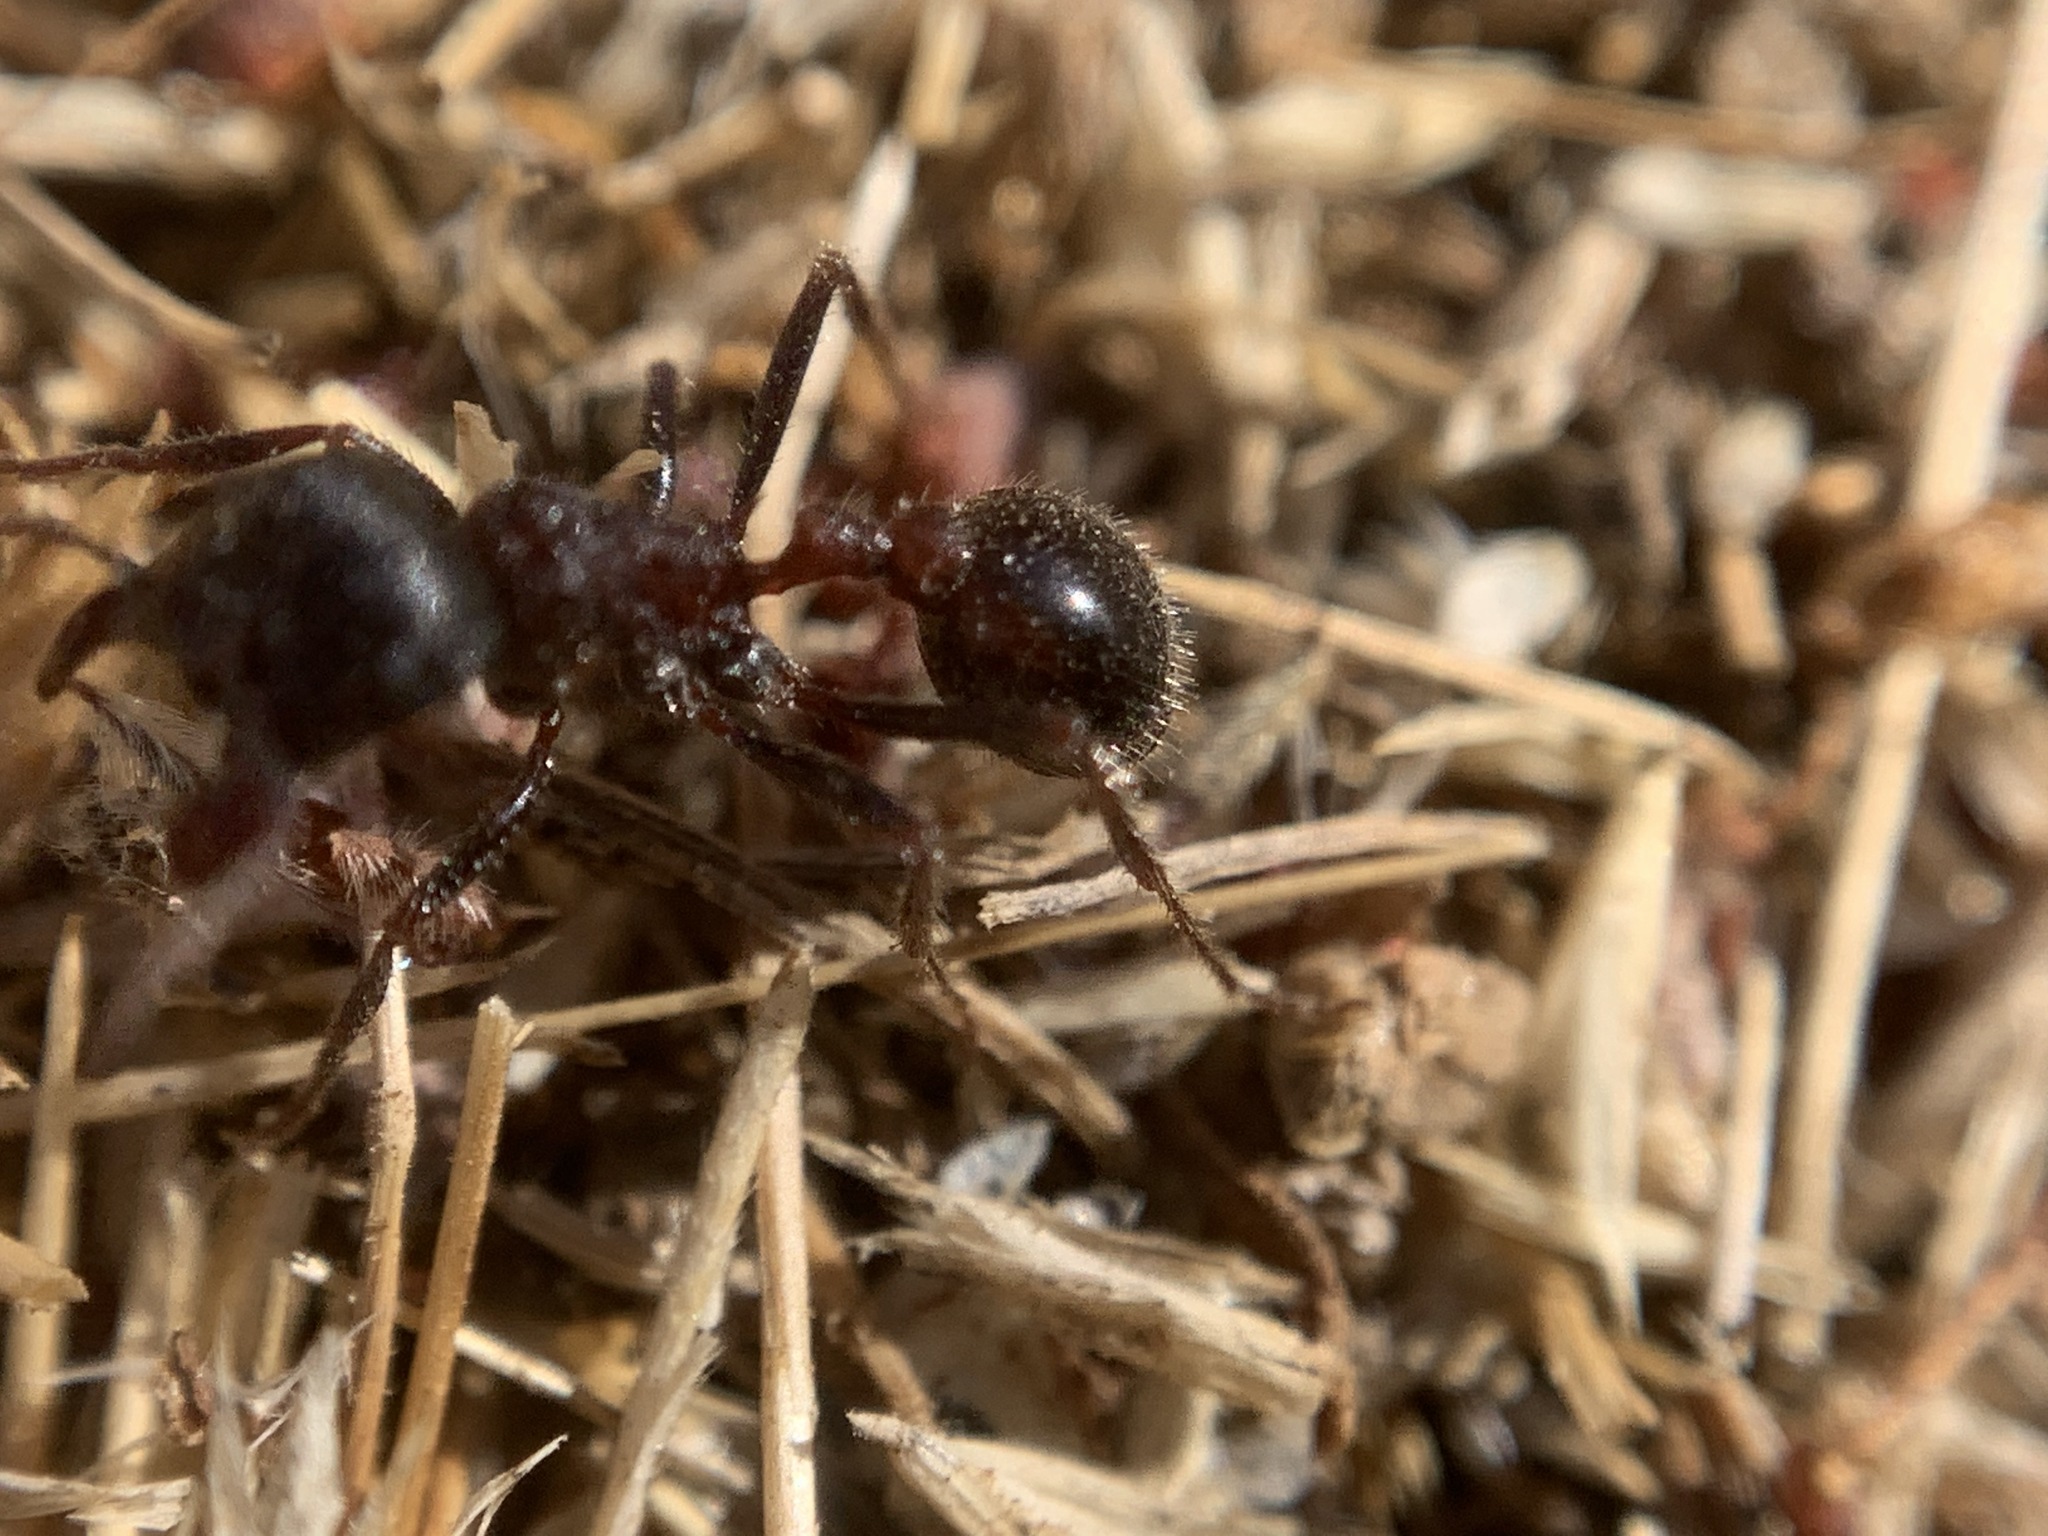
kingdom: Animalia
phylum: Arthropoda
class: Insecta
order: Hymenoptera
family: Formicidae
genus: Pogonomyrmex
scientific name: Pogonomyrmex rugosus
